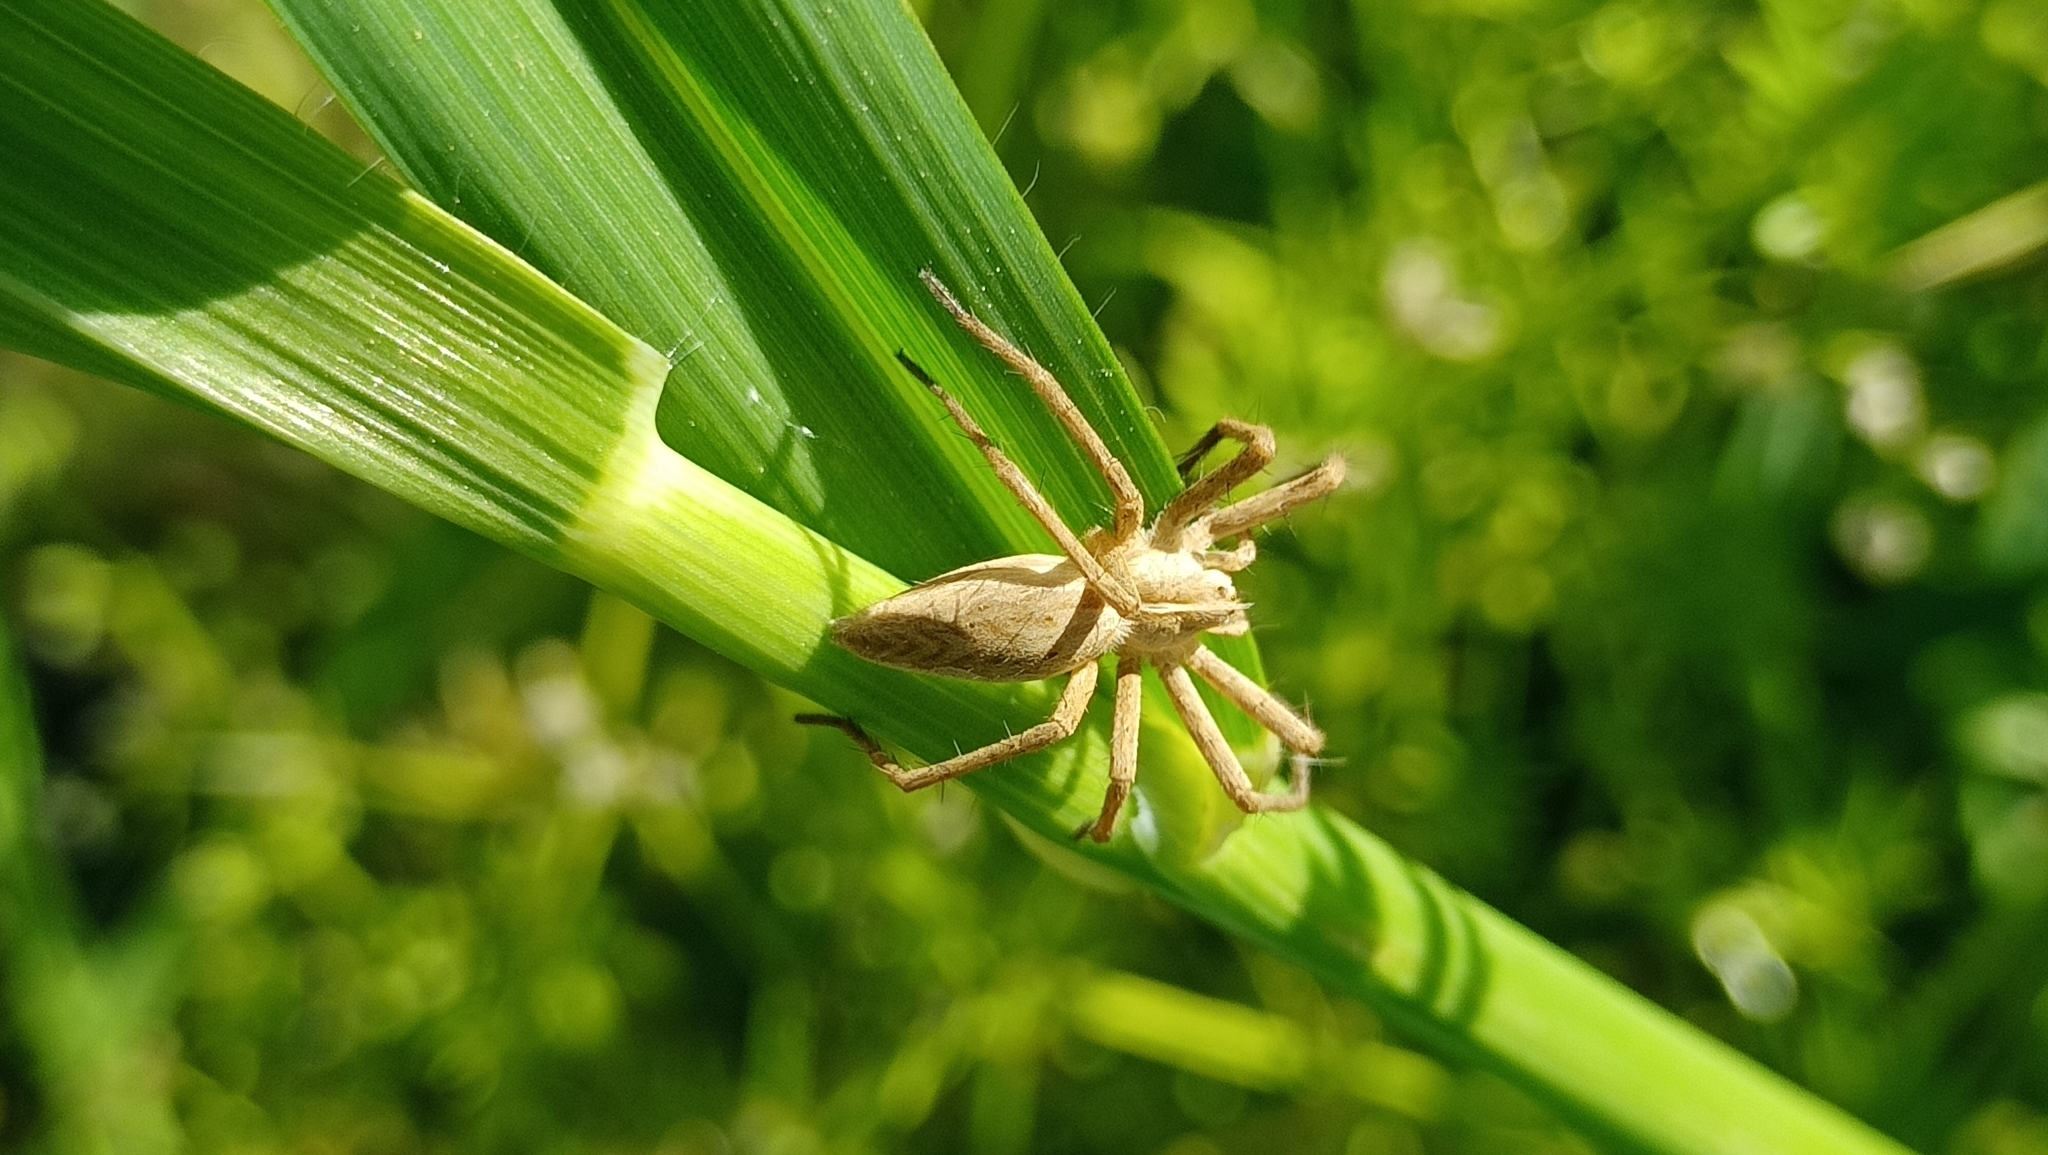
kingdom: Animalia
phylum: Arthropoda
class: Arachnida
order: Araneae
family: Pisauridae
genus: Pisaura
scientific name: Pisaura mirabilis
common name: Tent spider
